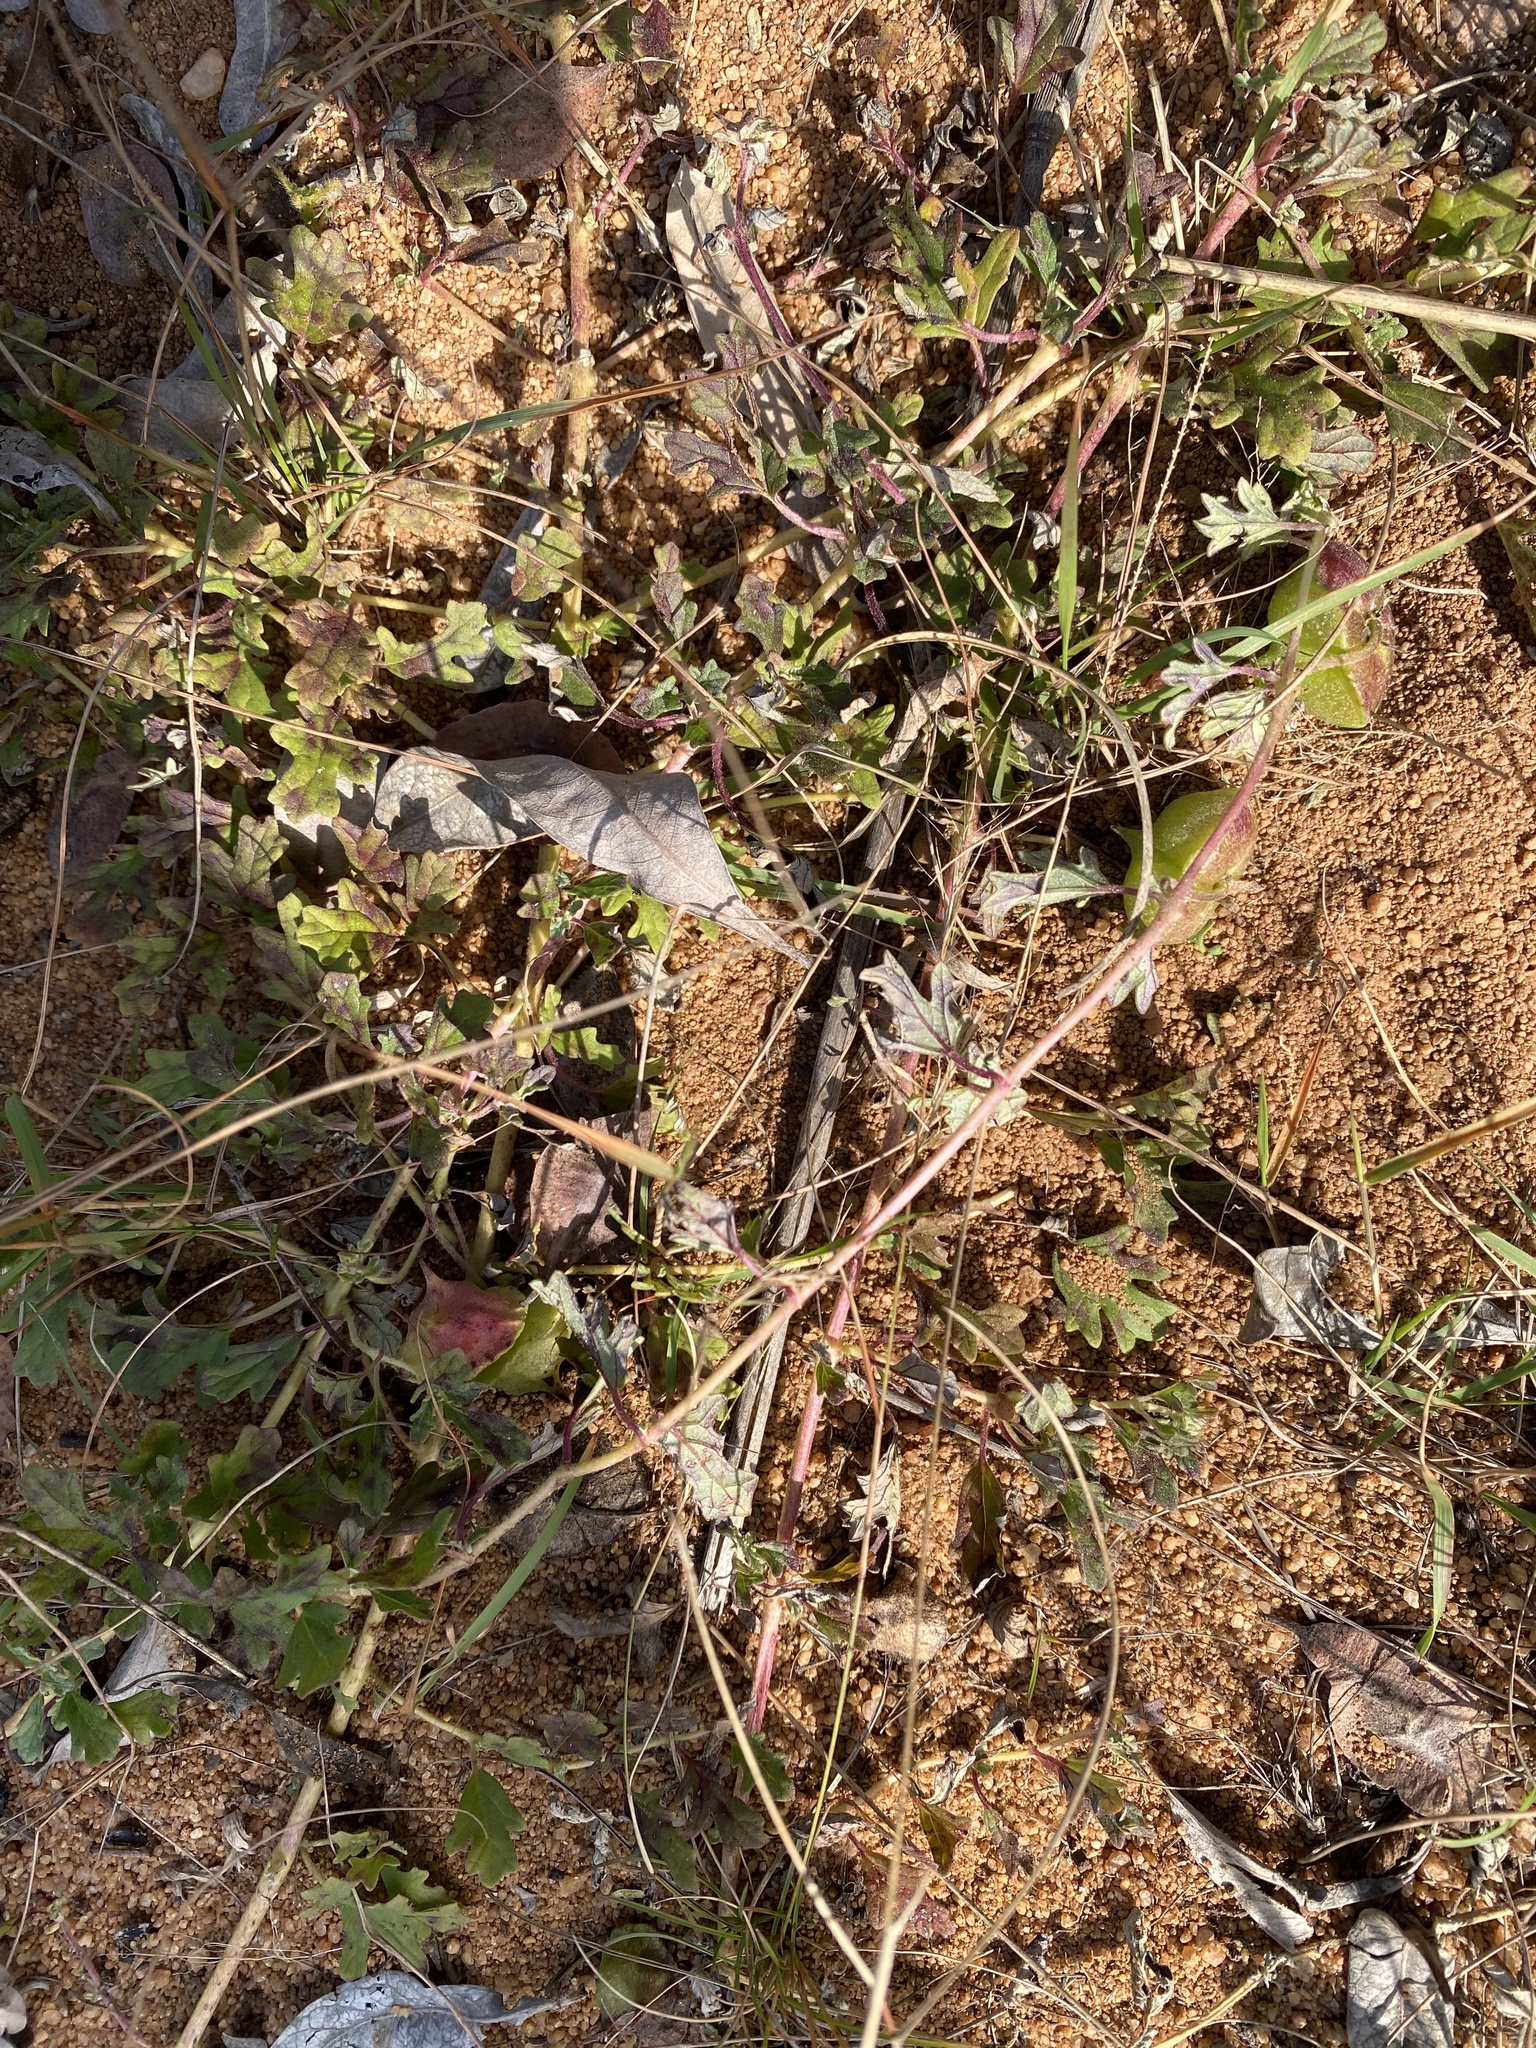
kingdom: Plantae
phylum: Tracheophyta
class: Magnoliopsida
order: Lamiales
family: Pedaliaceae
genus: Dicerocaryum
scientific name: Dicerocaryum senecioides
